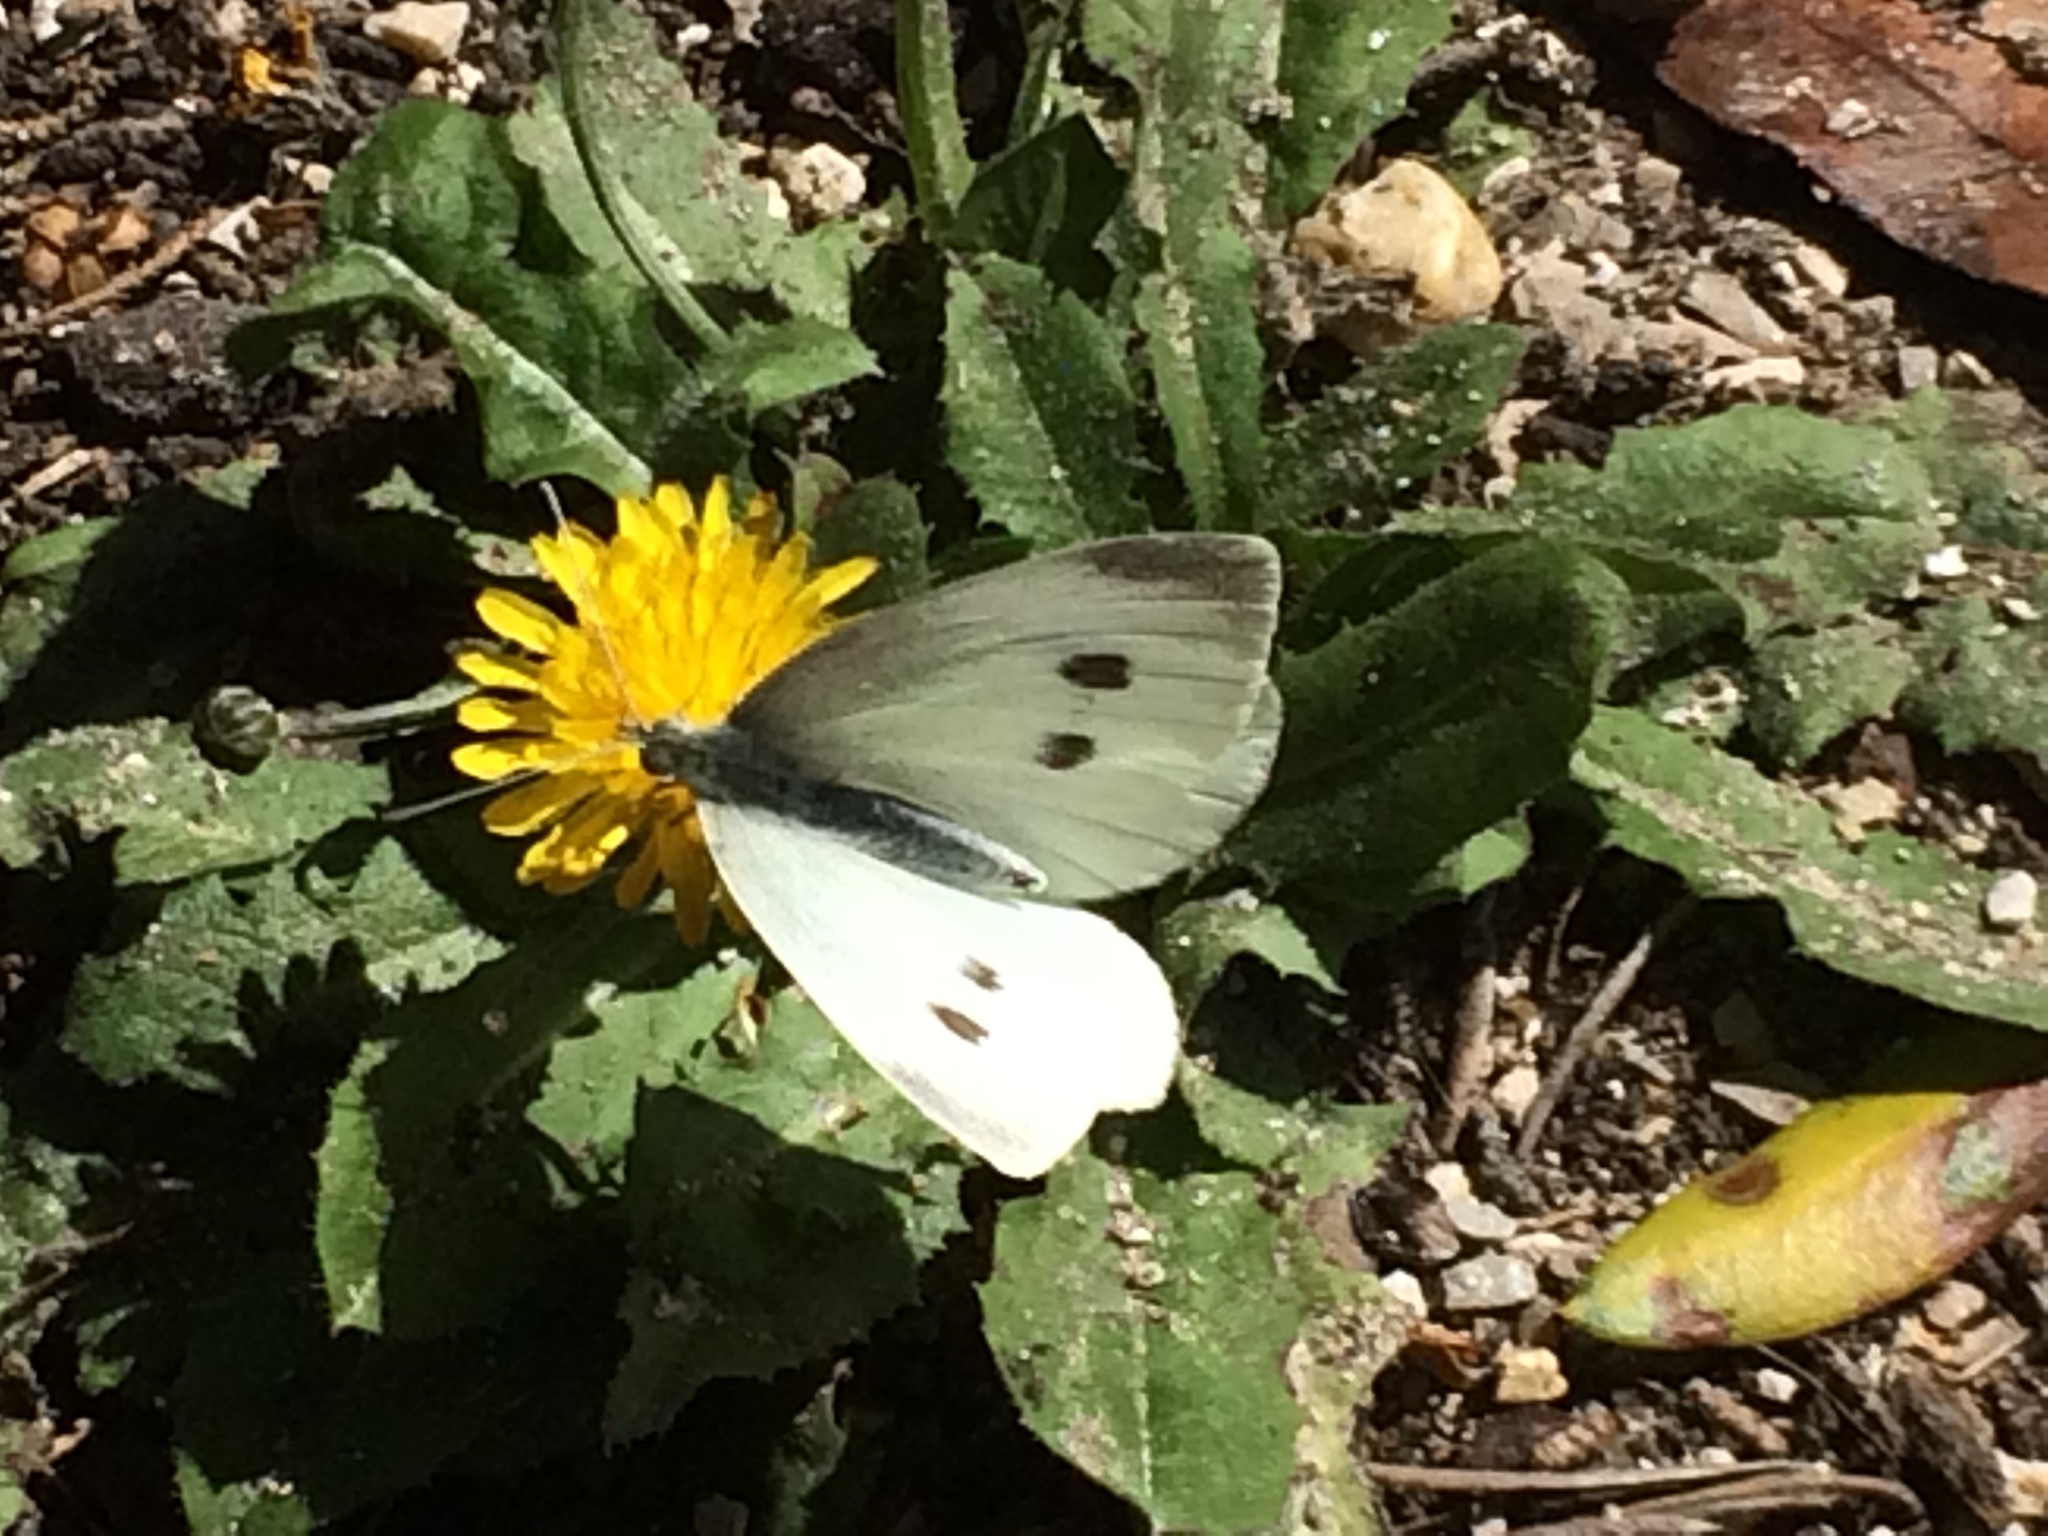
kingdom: Animalia
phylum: Arthropoda
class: Insecta
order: Lepidoptera
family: Pieridae
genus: Pieris
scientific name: Pieris rapae
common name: Small white
